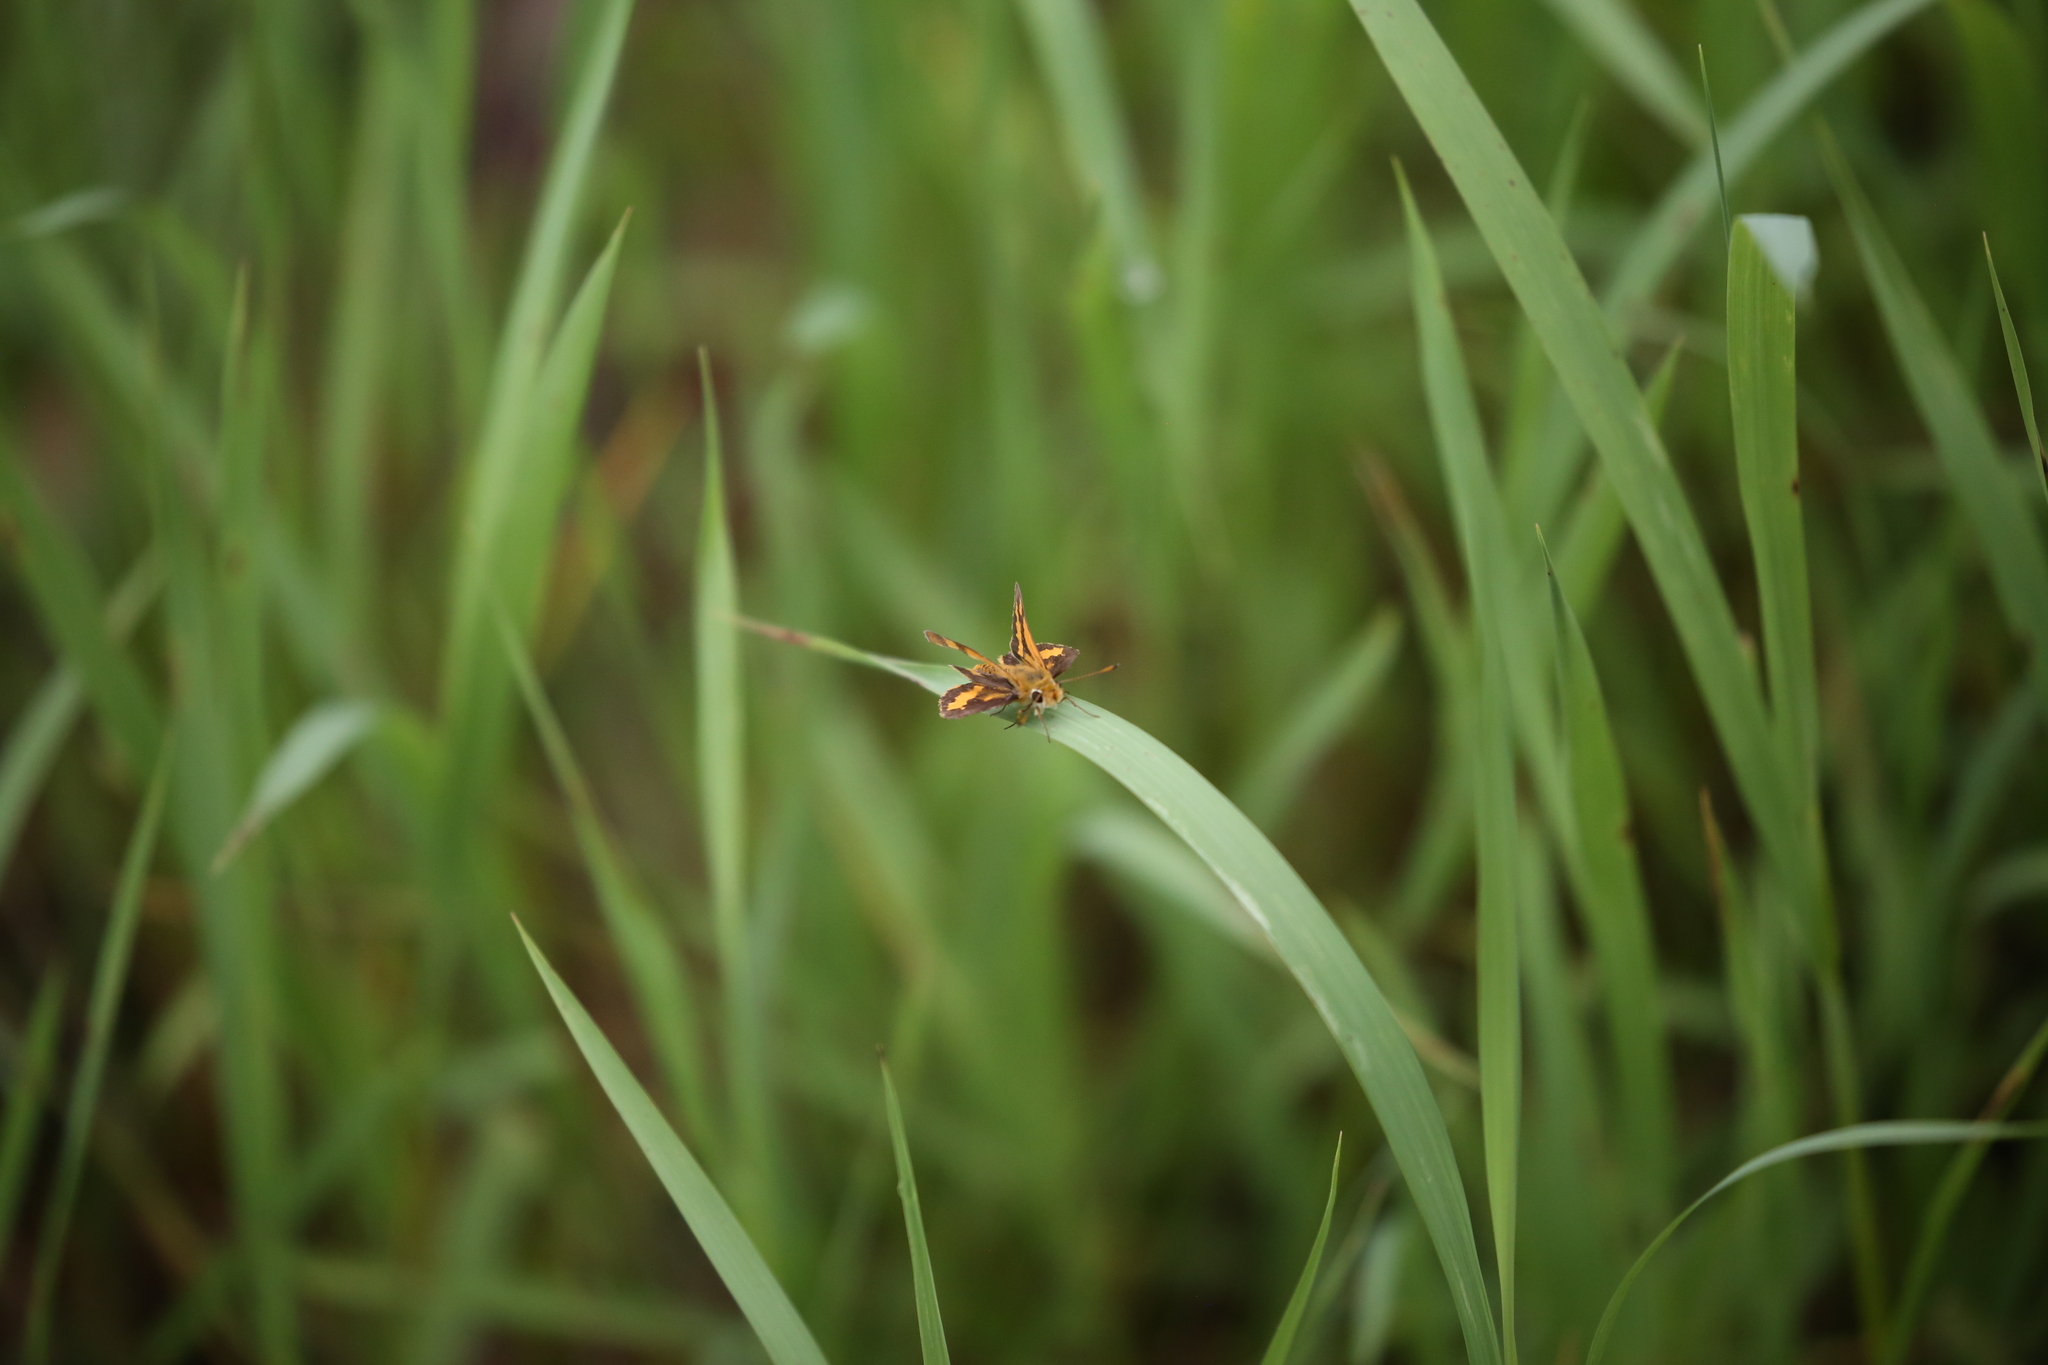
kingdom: Animalia
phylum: Arthropoda
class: Insecta
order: Lepidoptera
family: Hesperiidae
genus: Ocybadistes
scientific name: Ocybadistes flavovittata
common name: Narrow-brand grass-dart
